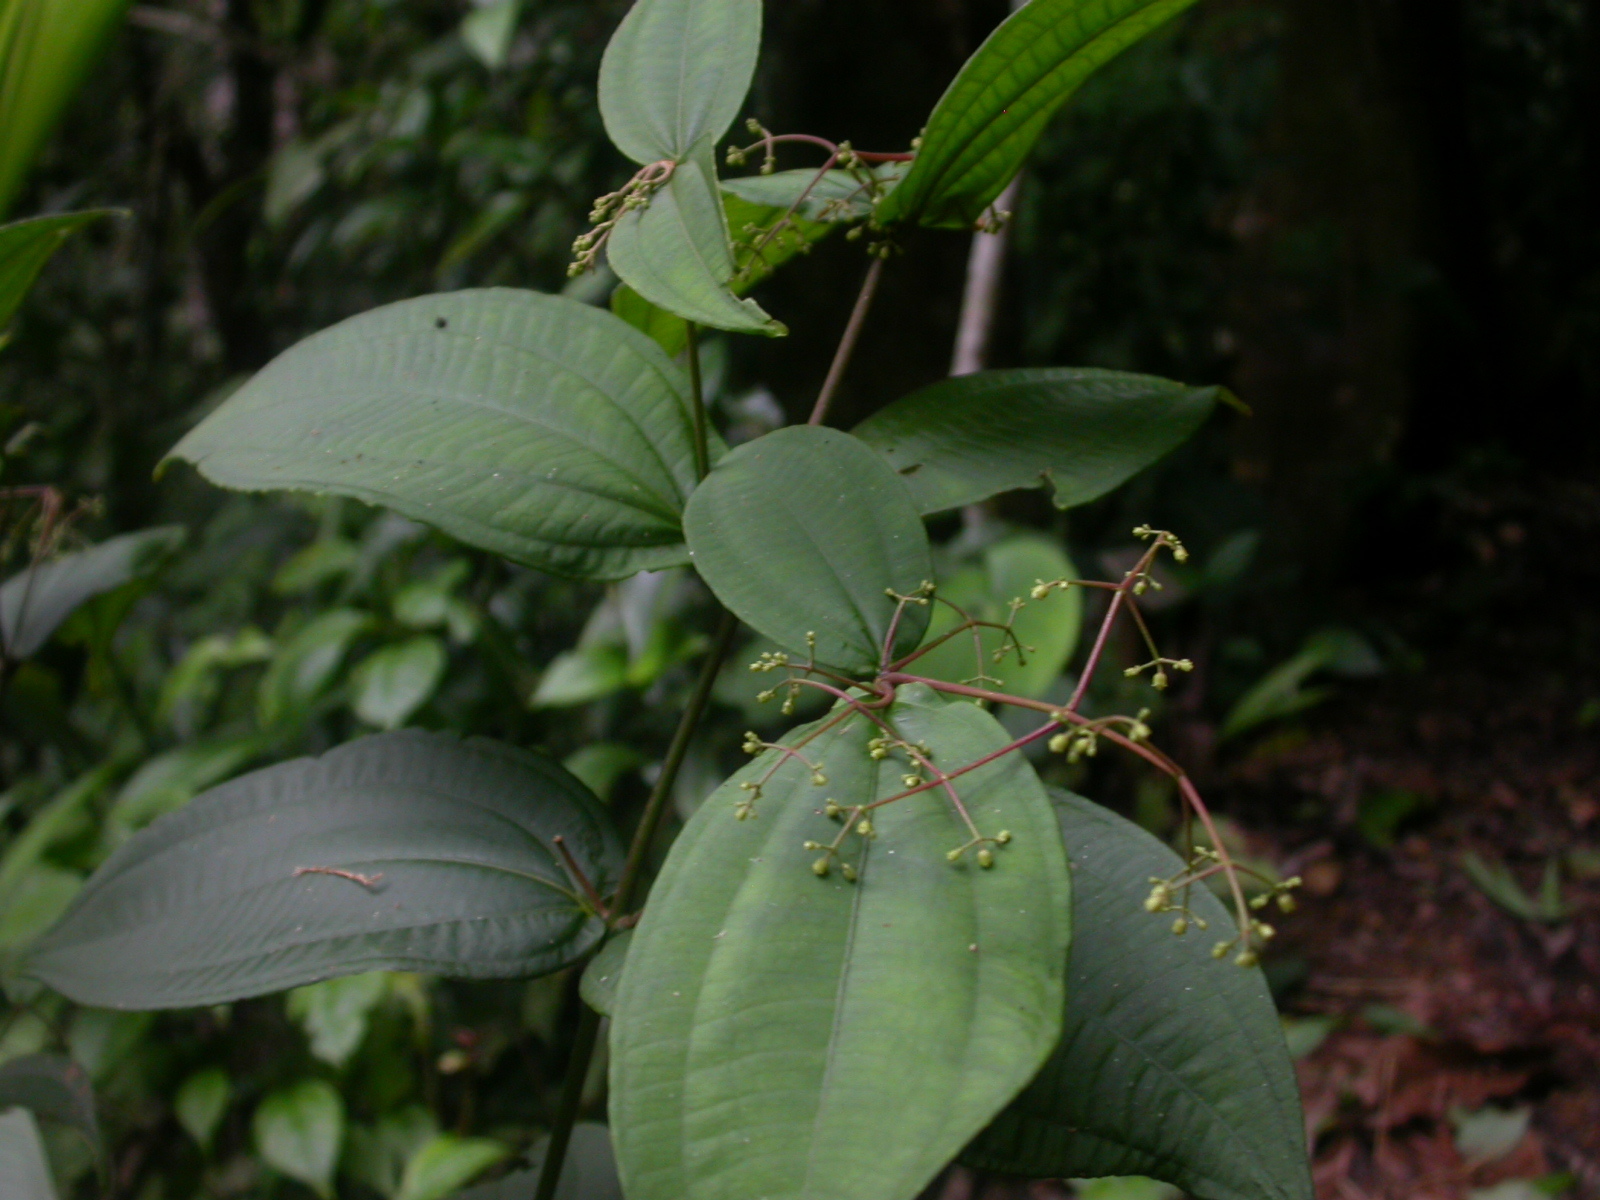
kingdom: Plantae
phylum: Tracheophyta
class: Magnoliopsida
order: Myrtales
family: Melastomataceae
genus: Miconia
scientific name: Miconia dissitiflora
